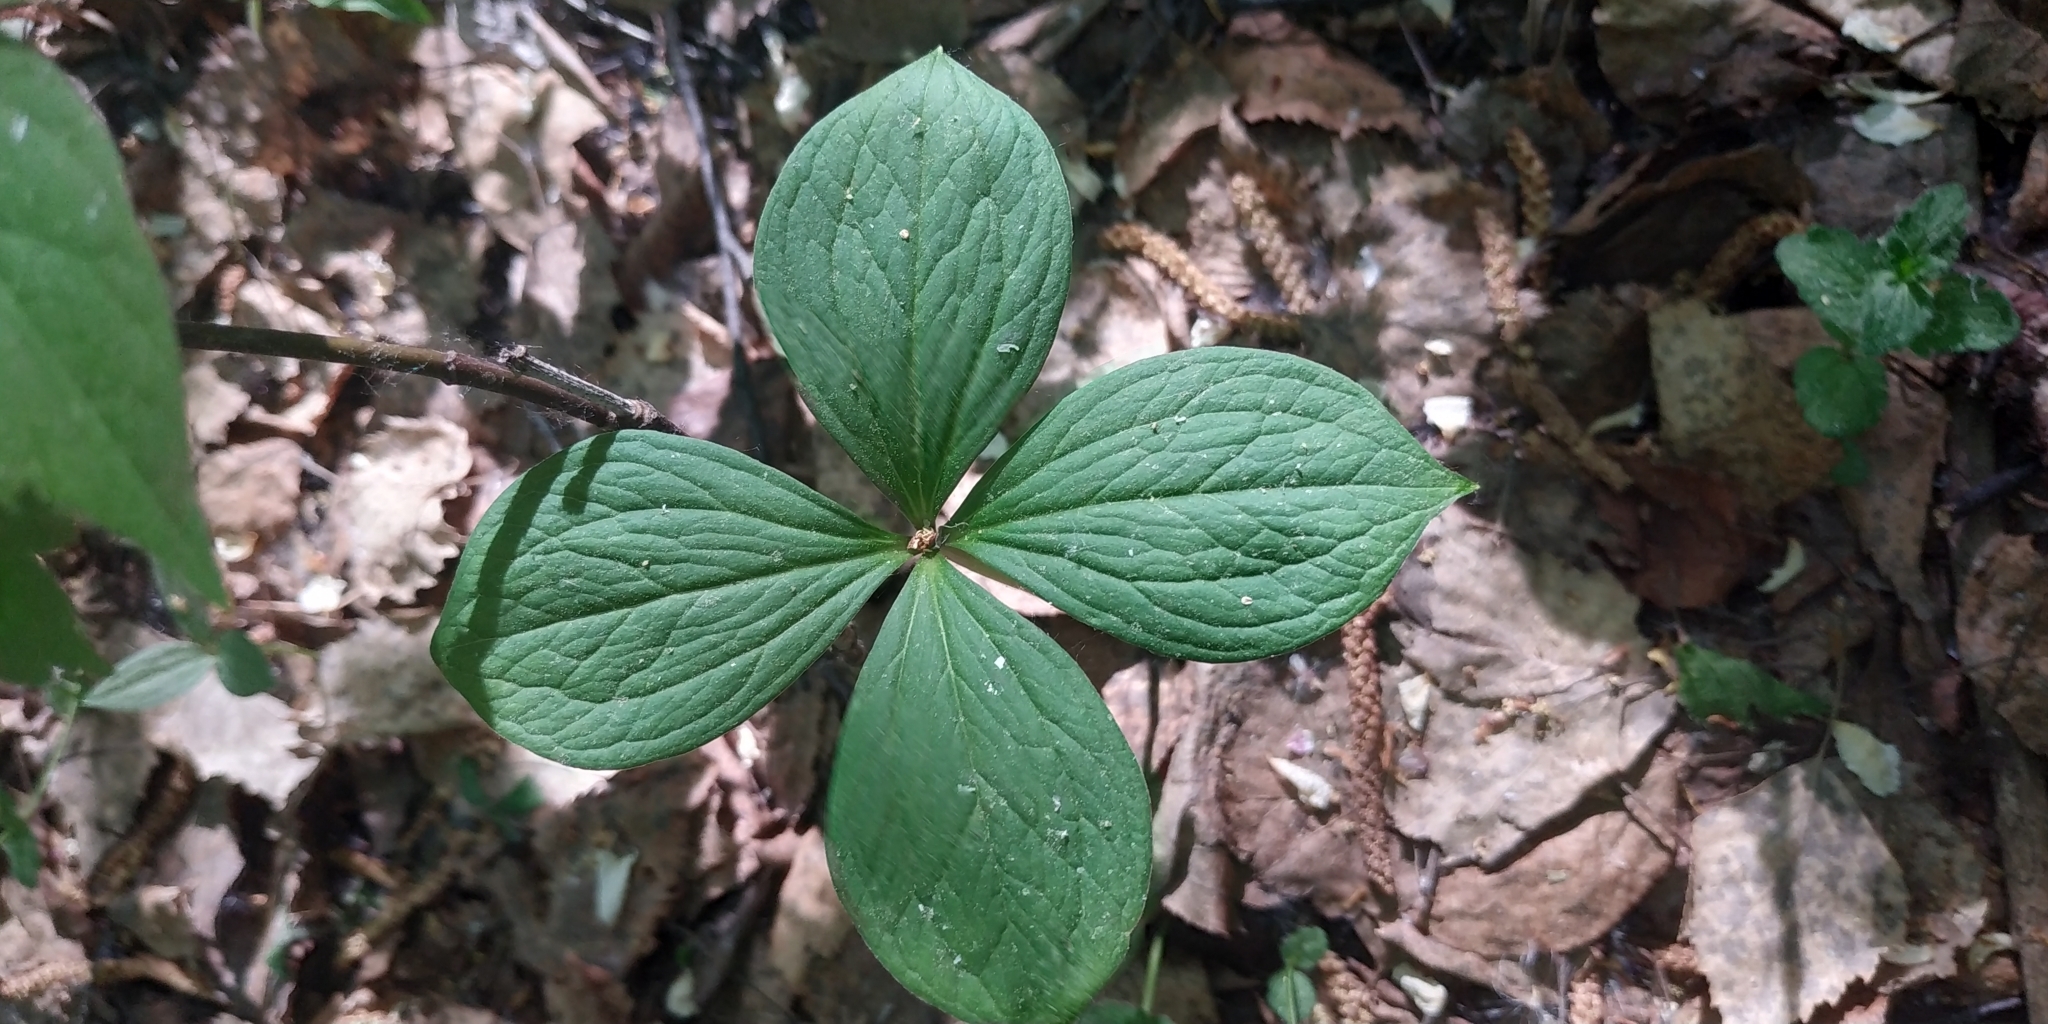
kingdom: Plantae
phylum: Tracheophyta
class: Liliopsida
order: Liliales
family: Melanthiaceae
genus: Paris
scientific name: Paris quadrifolia
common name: Herb-paris
